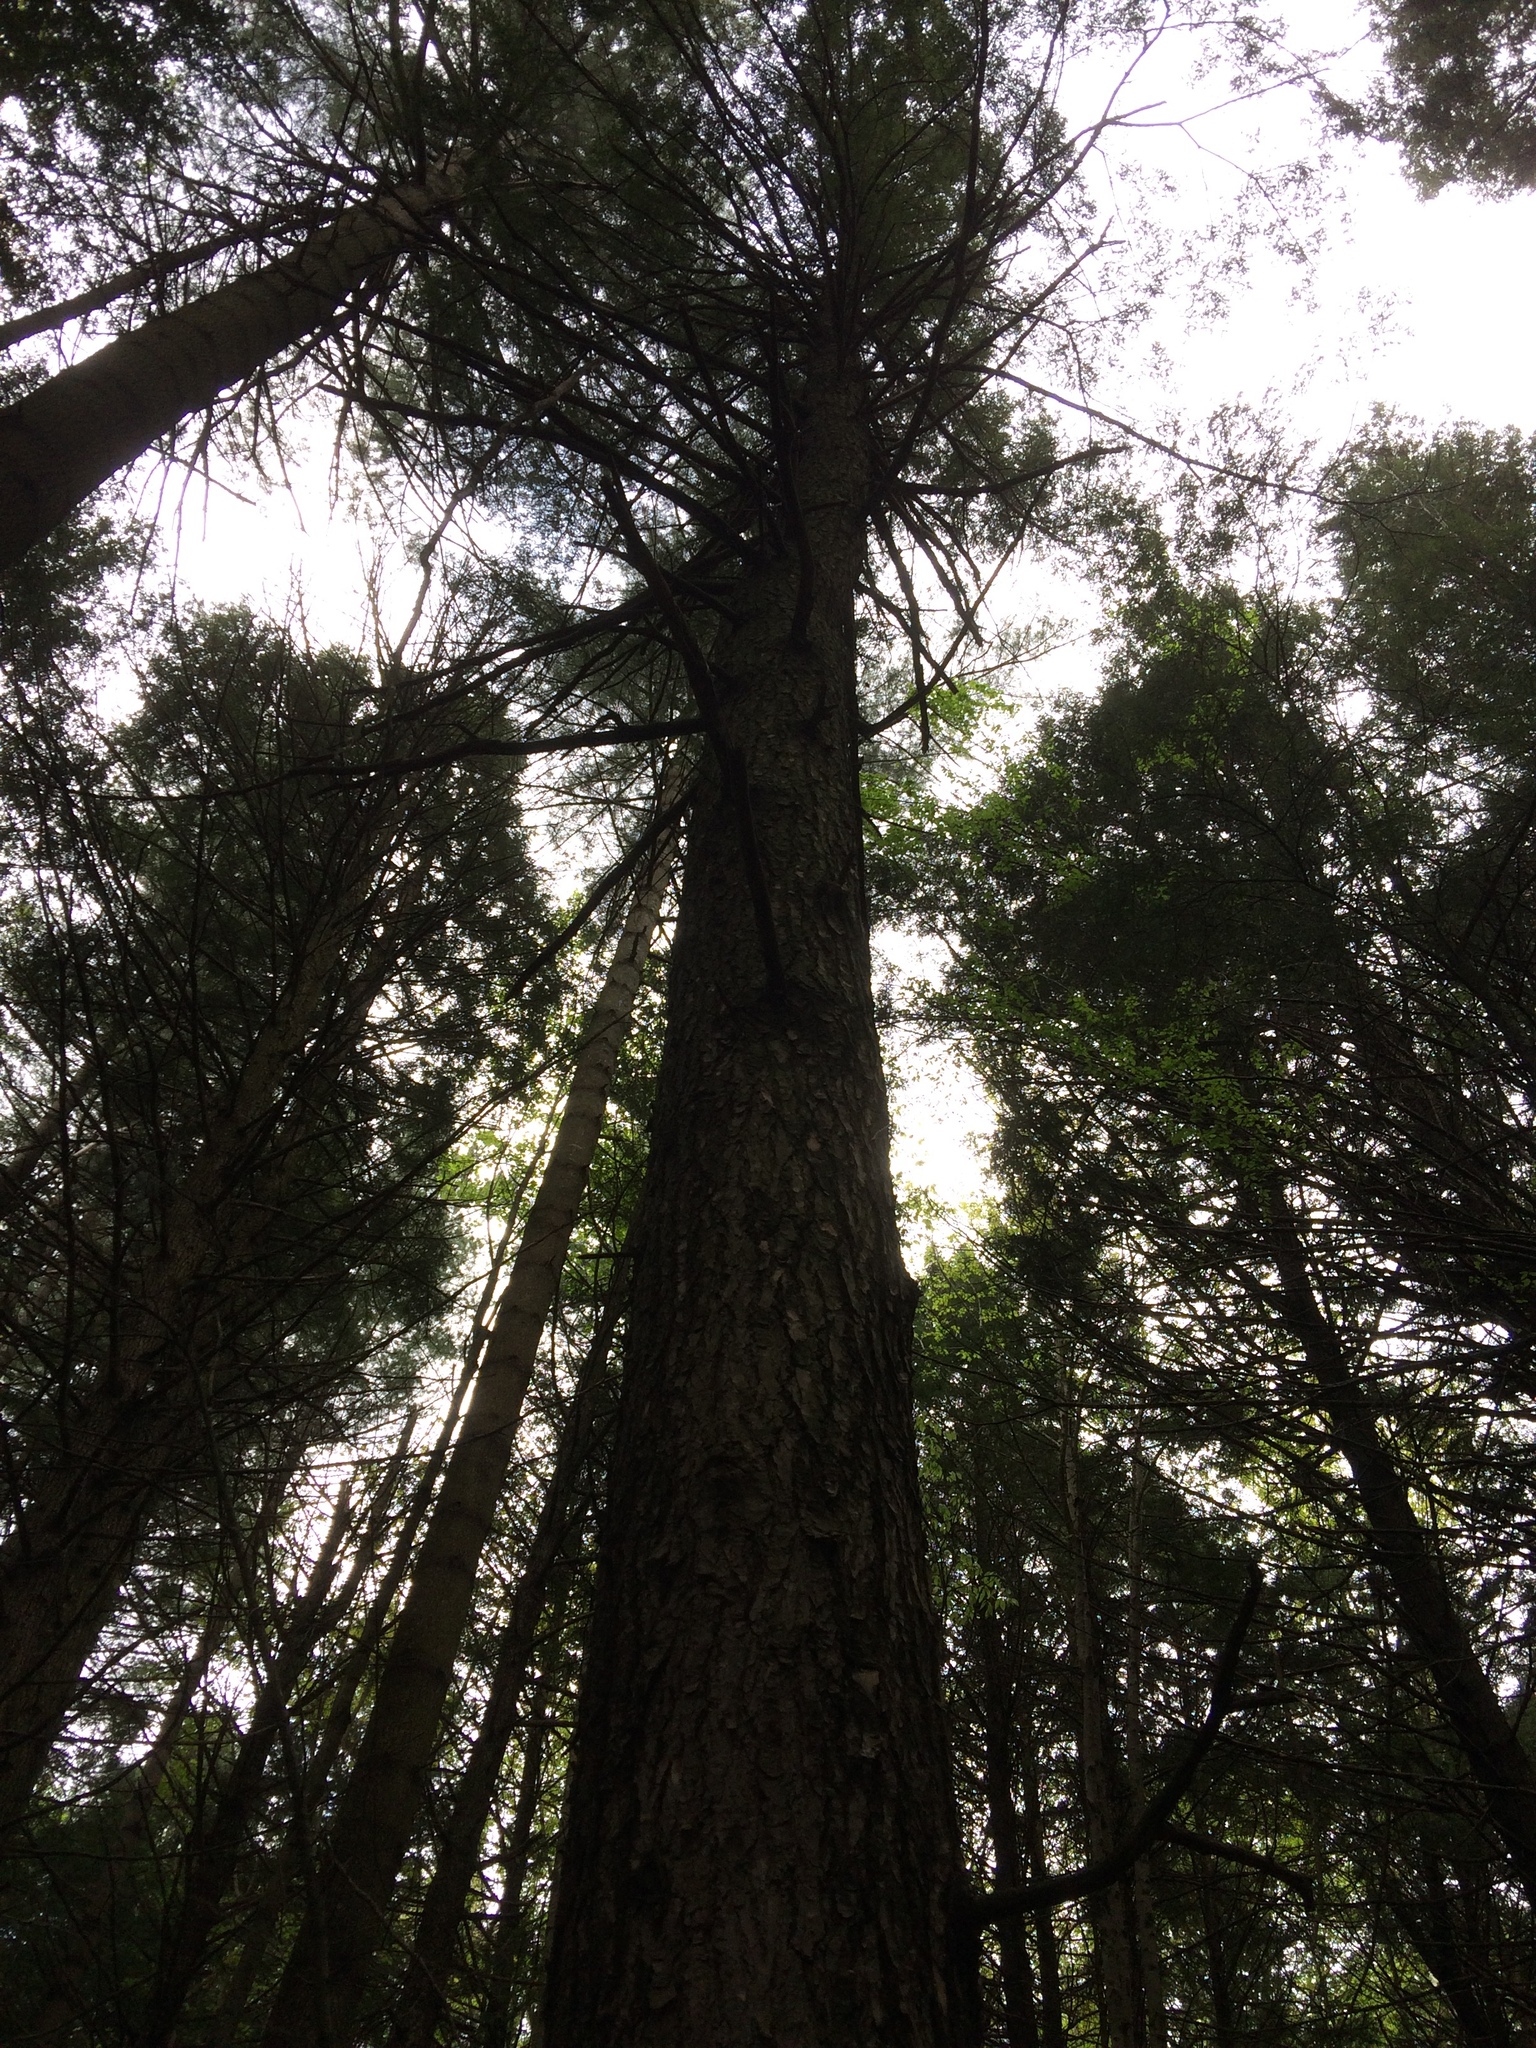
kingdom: Plantae
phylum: Tracheophyta
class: Pinopsida
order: Pinales
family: Pinaceae
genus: Tsuga
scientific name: Tsuga canadensis
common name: Eastern hemlock
